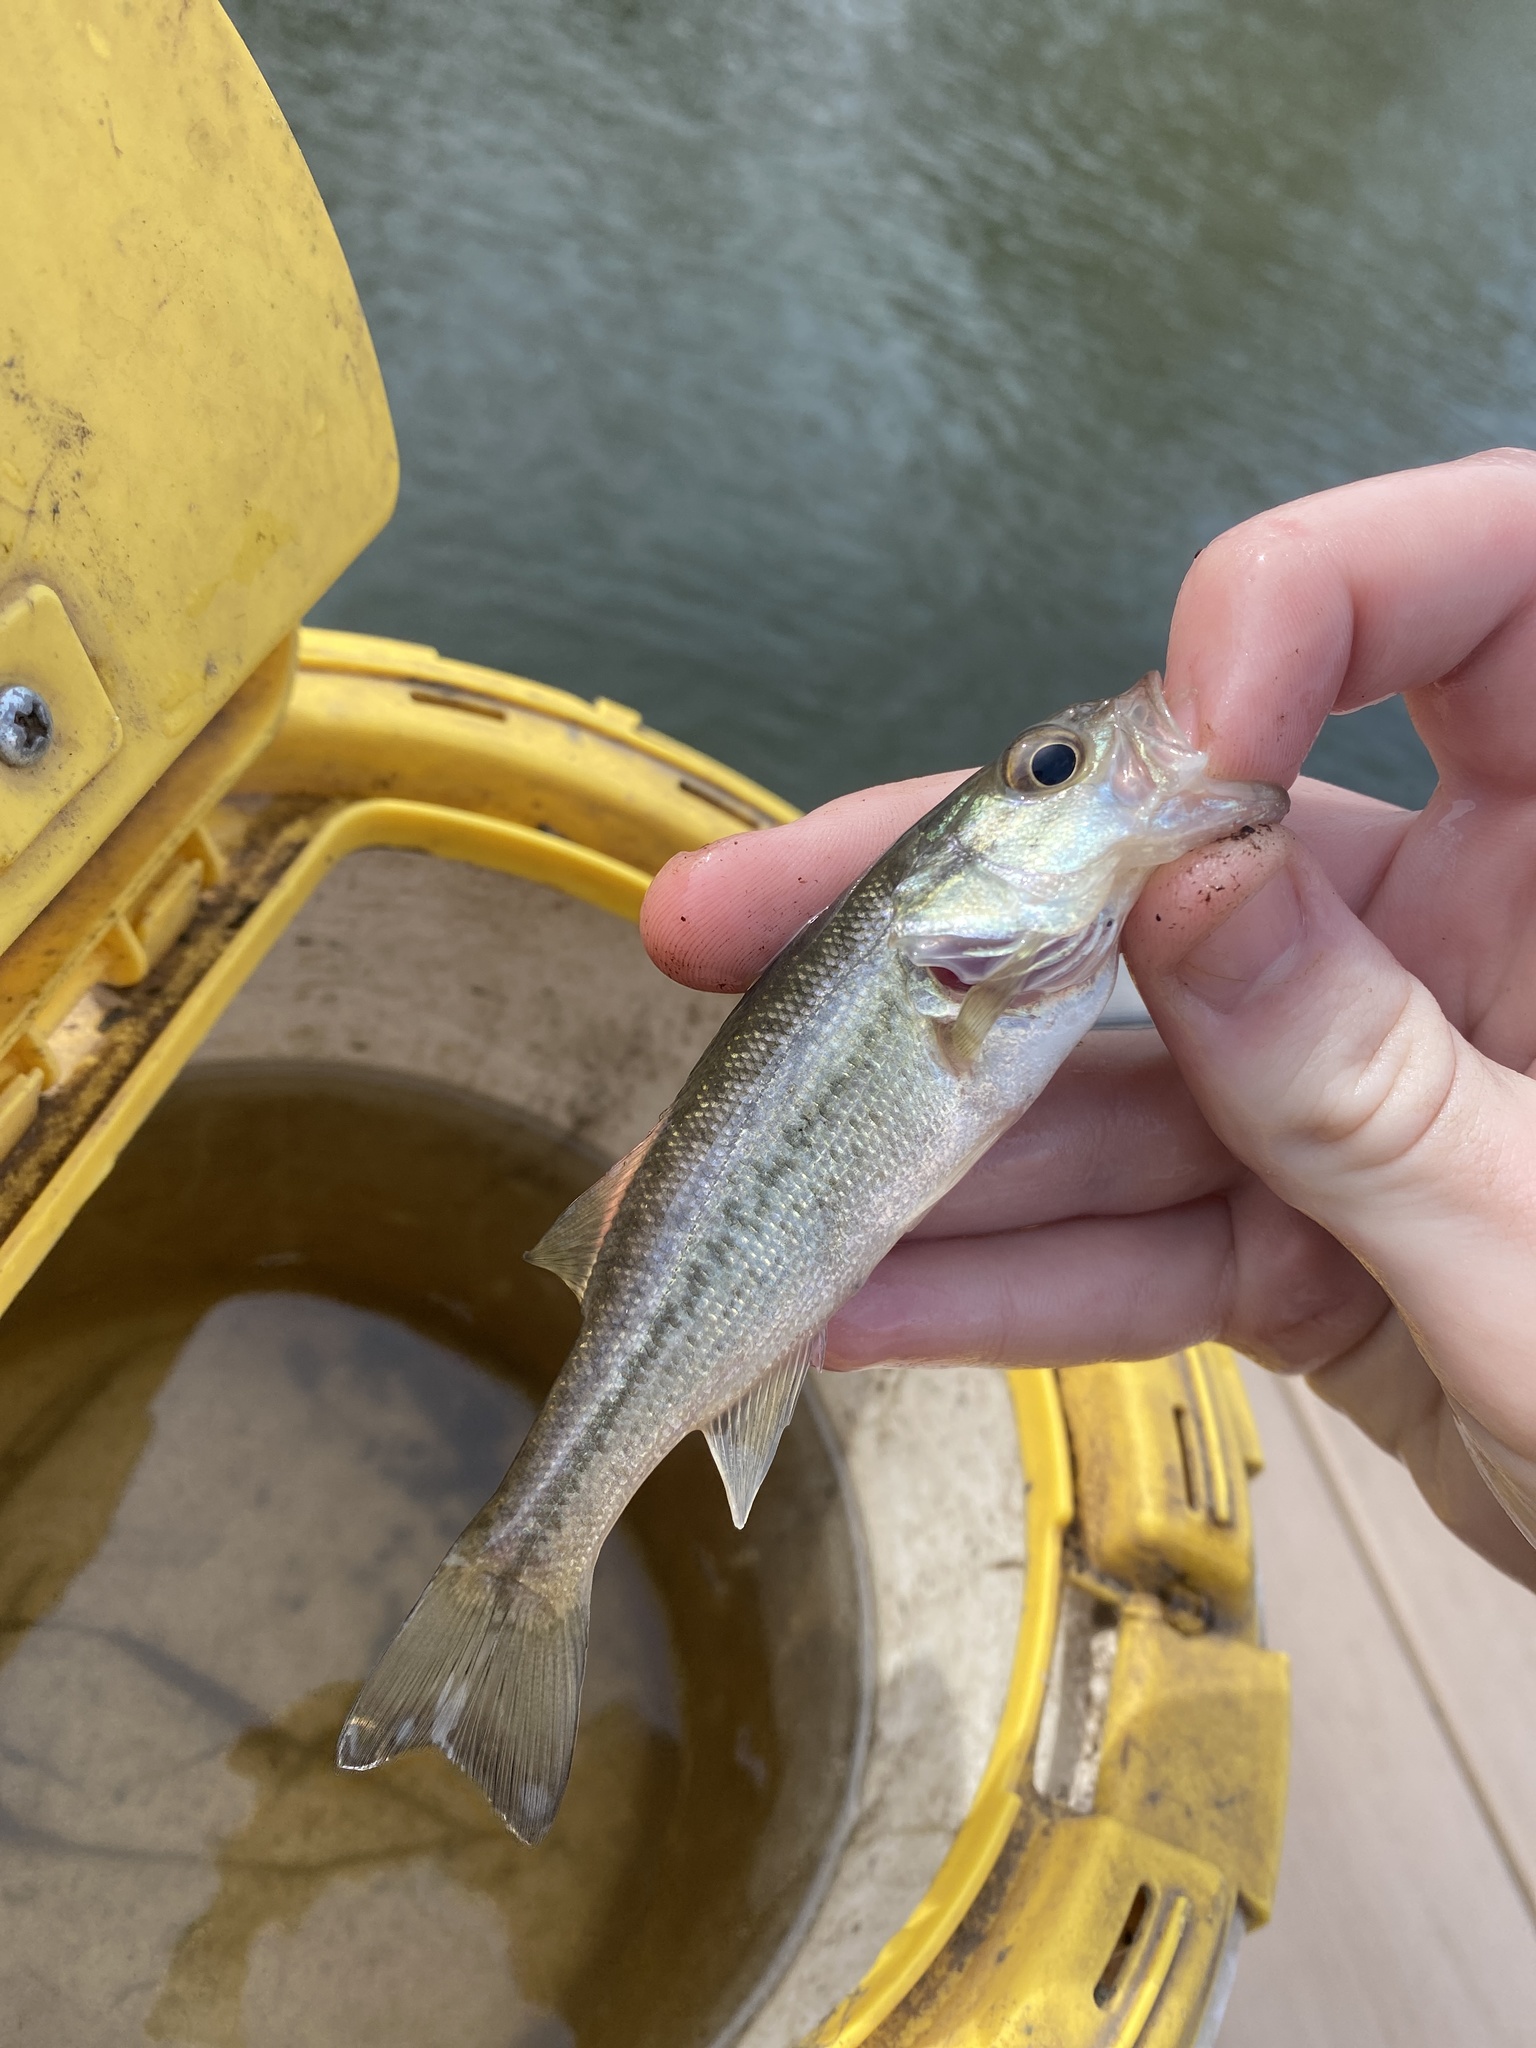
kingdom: Animalia
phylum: Chordata
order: Perciformes
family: Centrarchidae
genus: Micropterus
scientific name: Micropterus
